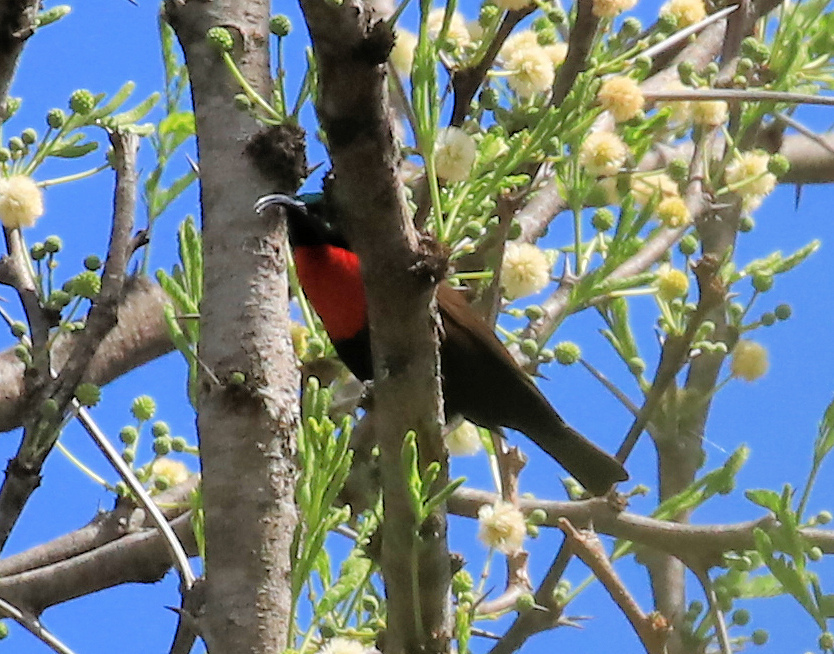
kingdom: Animalia
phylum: Chordata
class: Aves
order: Passeriformes
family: Nectariniidae
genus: Chalcomitra
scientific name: Chalcomitra senegalensis
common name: Scarlet-chested sunbird
